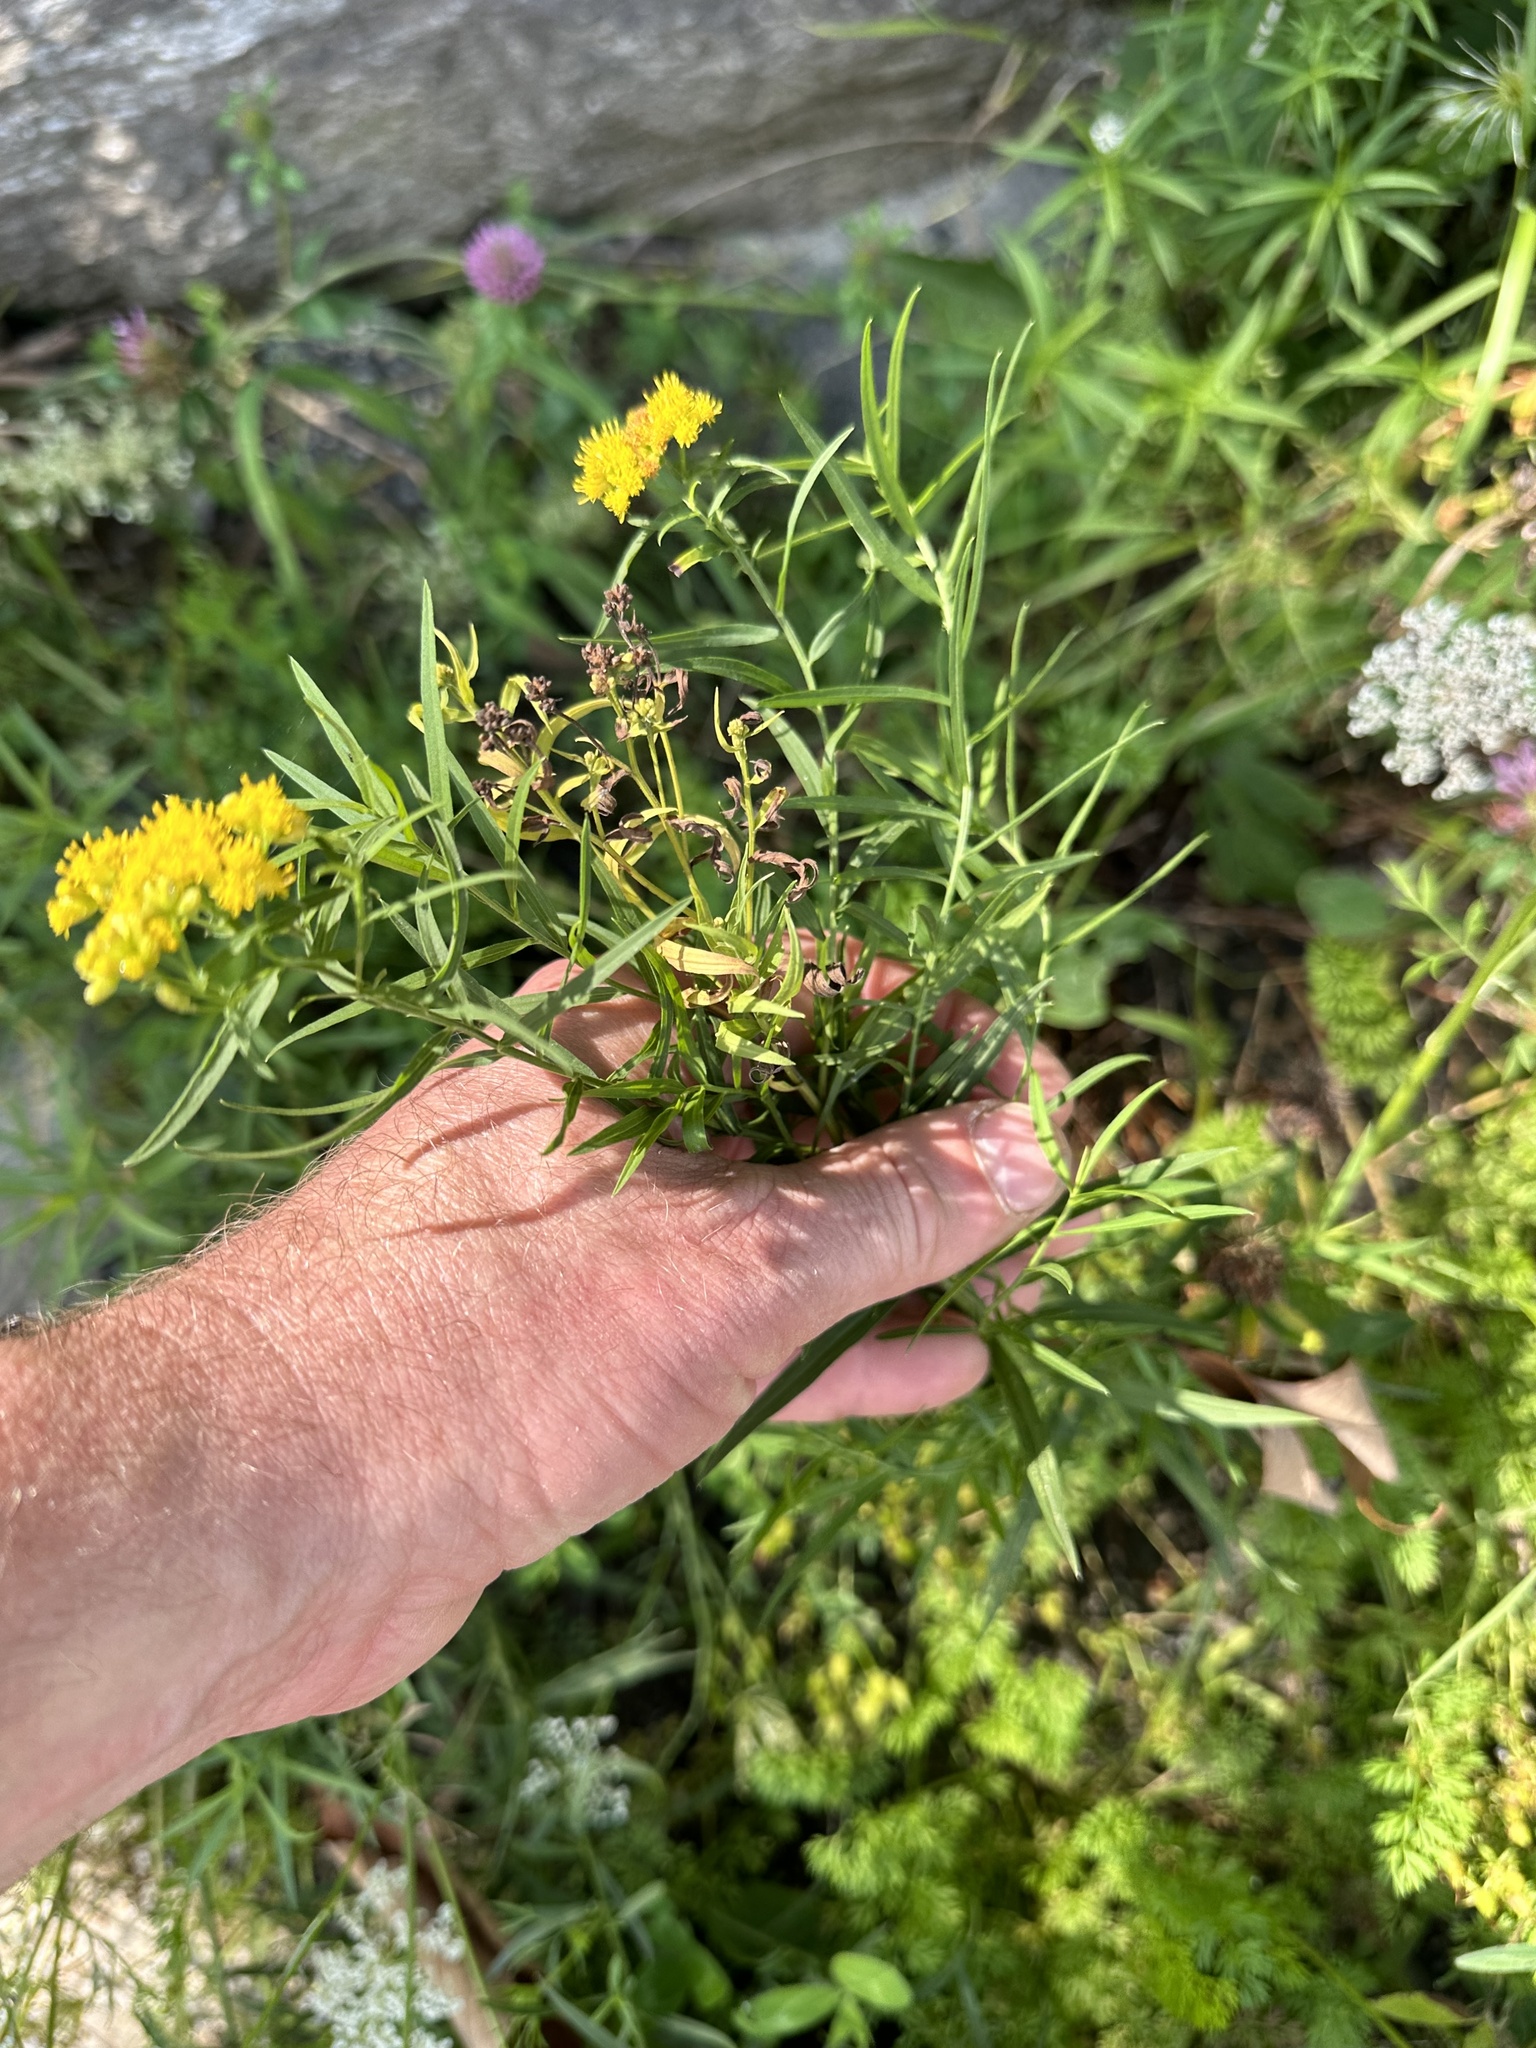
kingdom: Plantae
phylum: Tracheophyta
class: Magnoliopsida
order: Asterales
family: Asteraceae
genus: Euthamia
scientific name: Euthamia graminifolia
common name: Common goldentop
